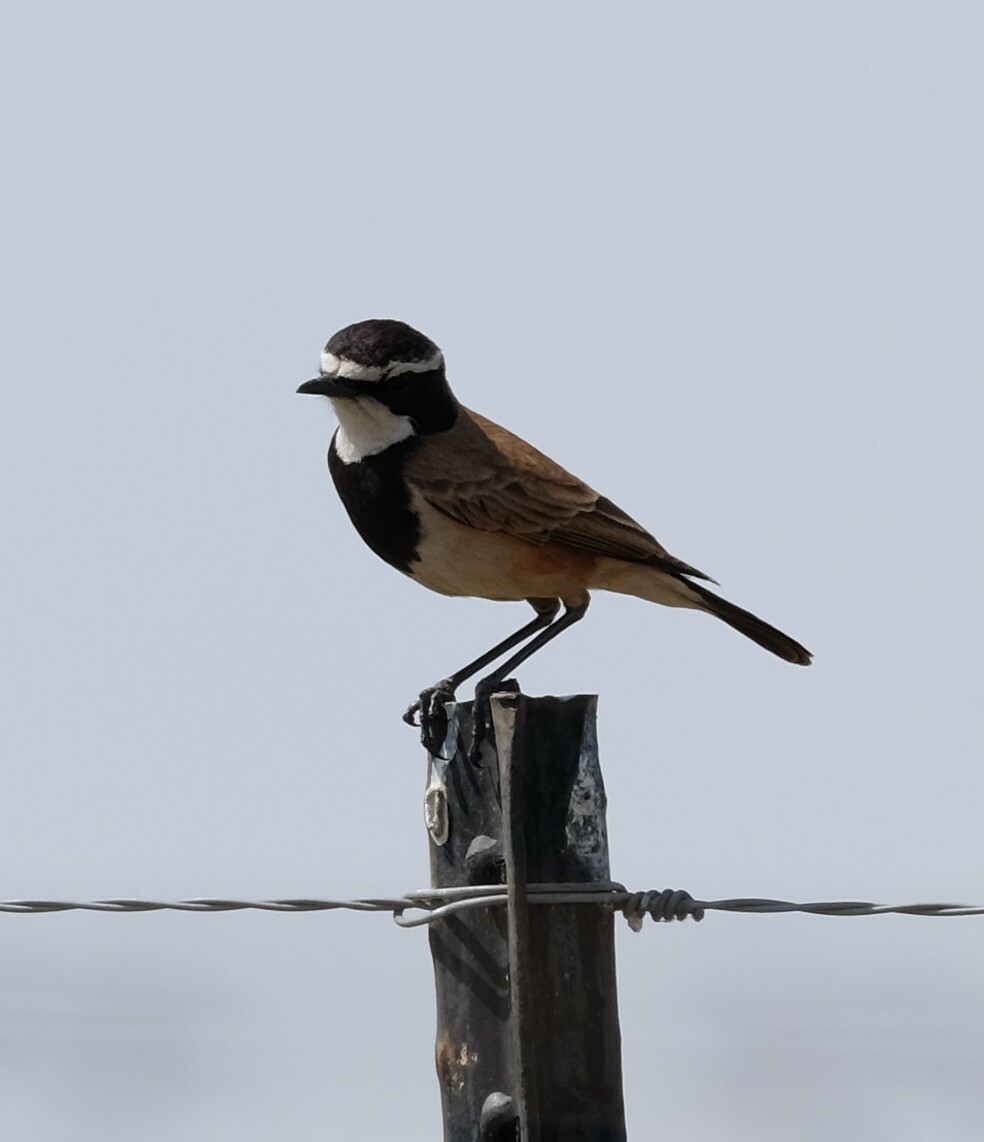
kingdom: Animalia
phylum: Chordata
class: Aves
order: Passeriformes
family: Muscicapidae
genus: Oenanthe
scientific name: Oenanthe pileata
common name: Capped wheatear
